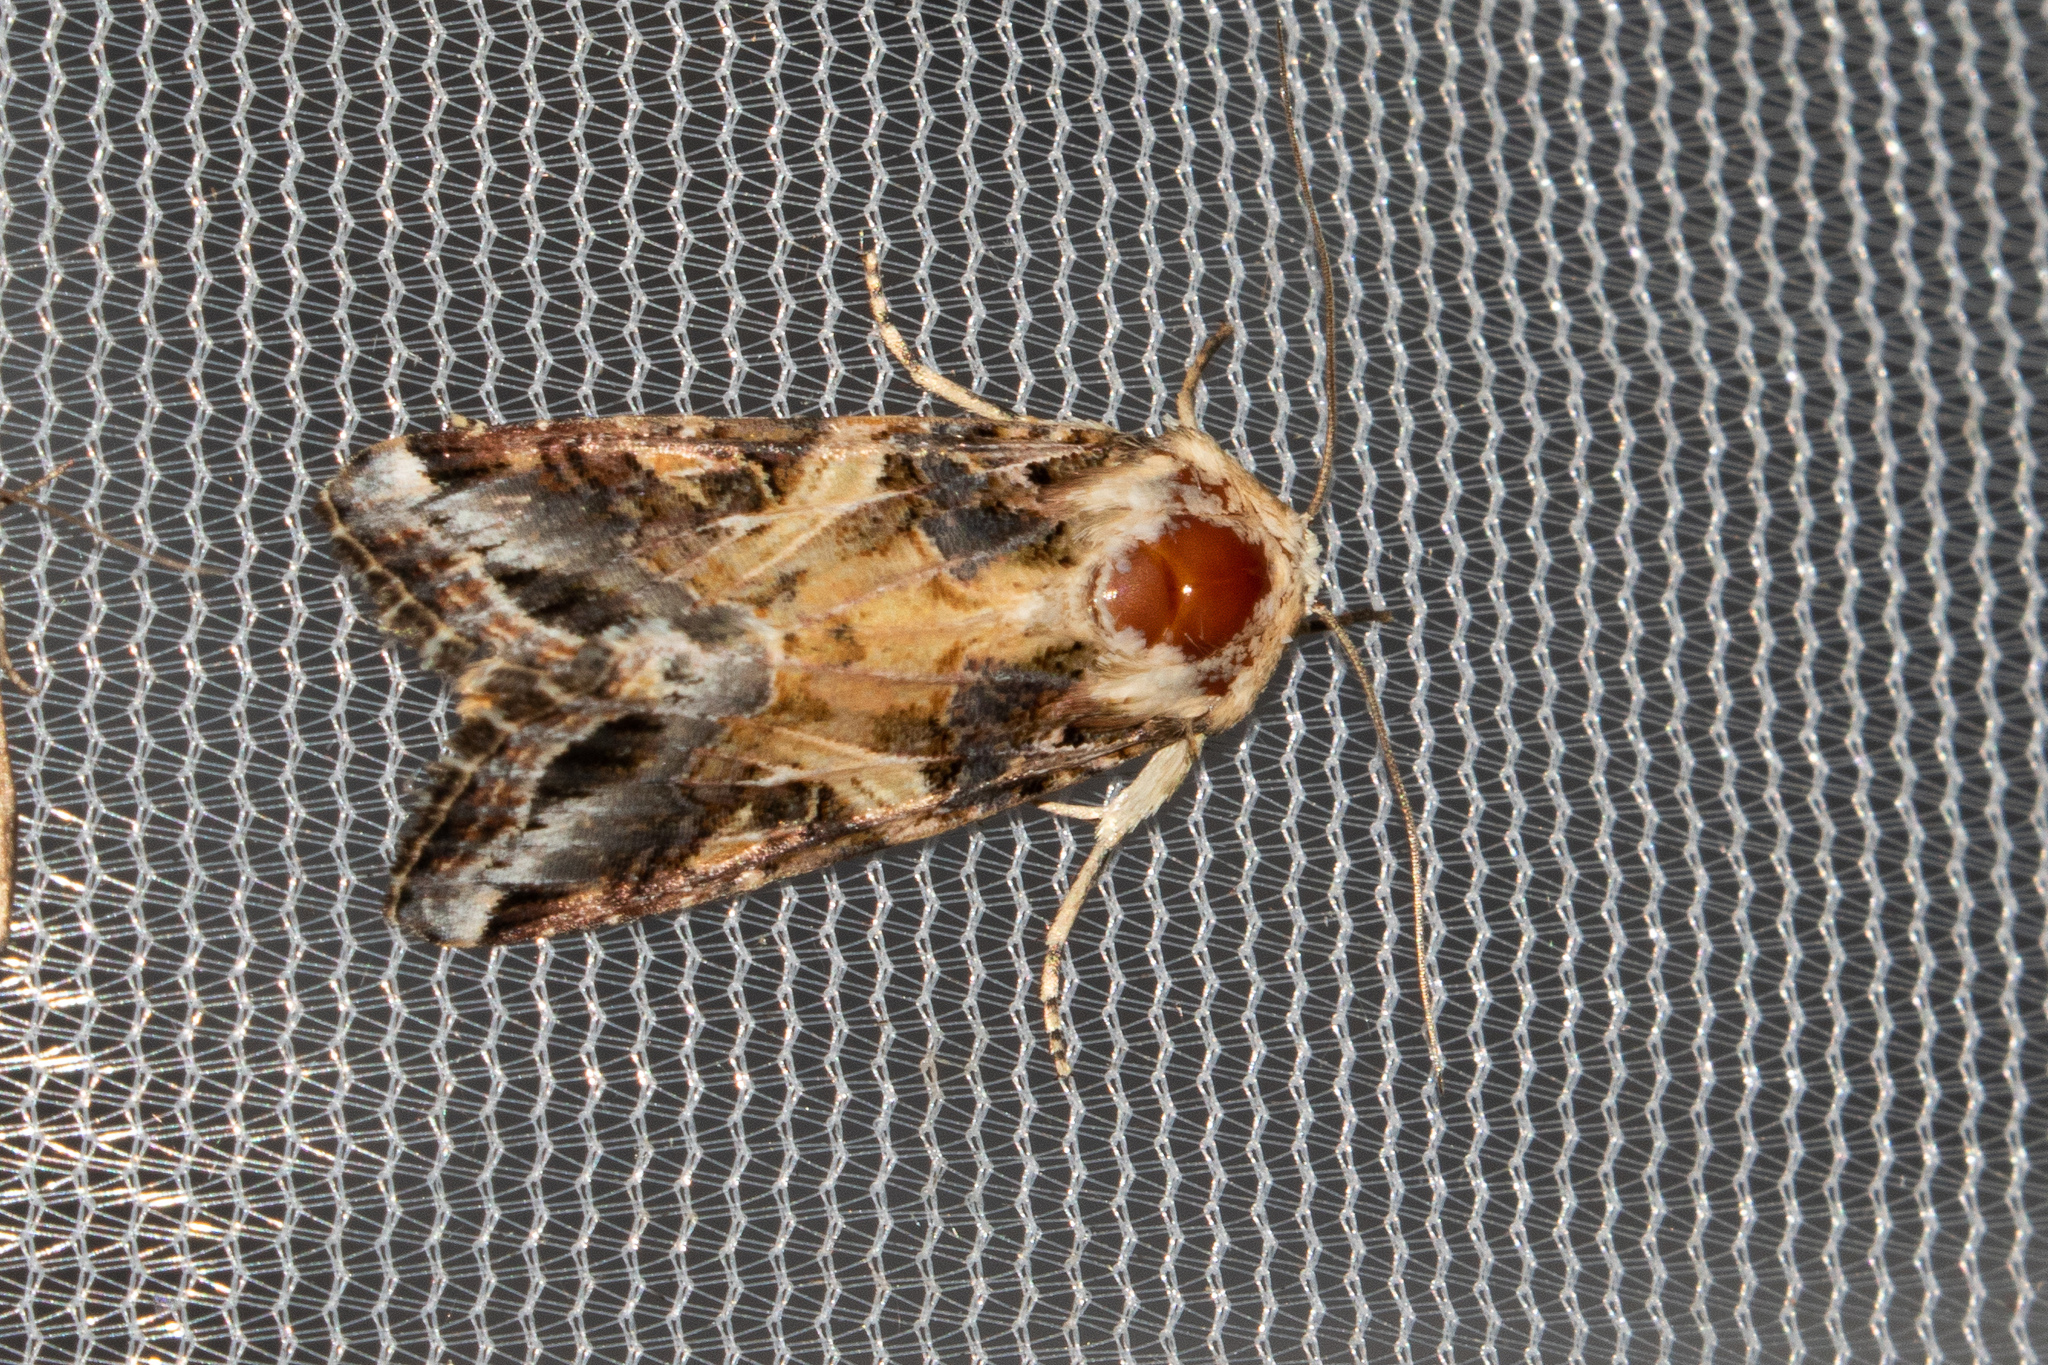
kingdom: Animalia
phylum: Arthropoda
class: Insecta
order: Lepidoptera
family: Noctuidae
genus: Spodoptera
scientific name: Spodoptera ornithogalli
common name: Yellow-striped armyworm
